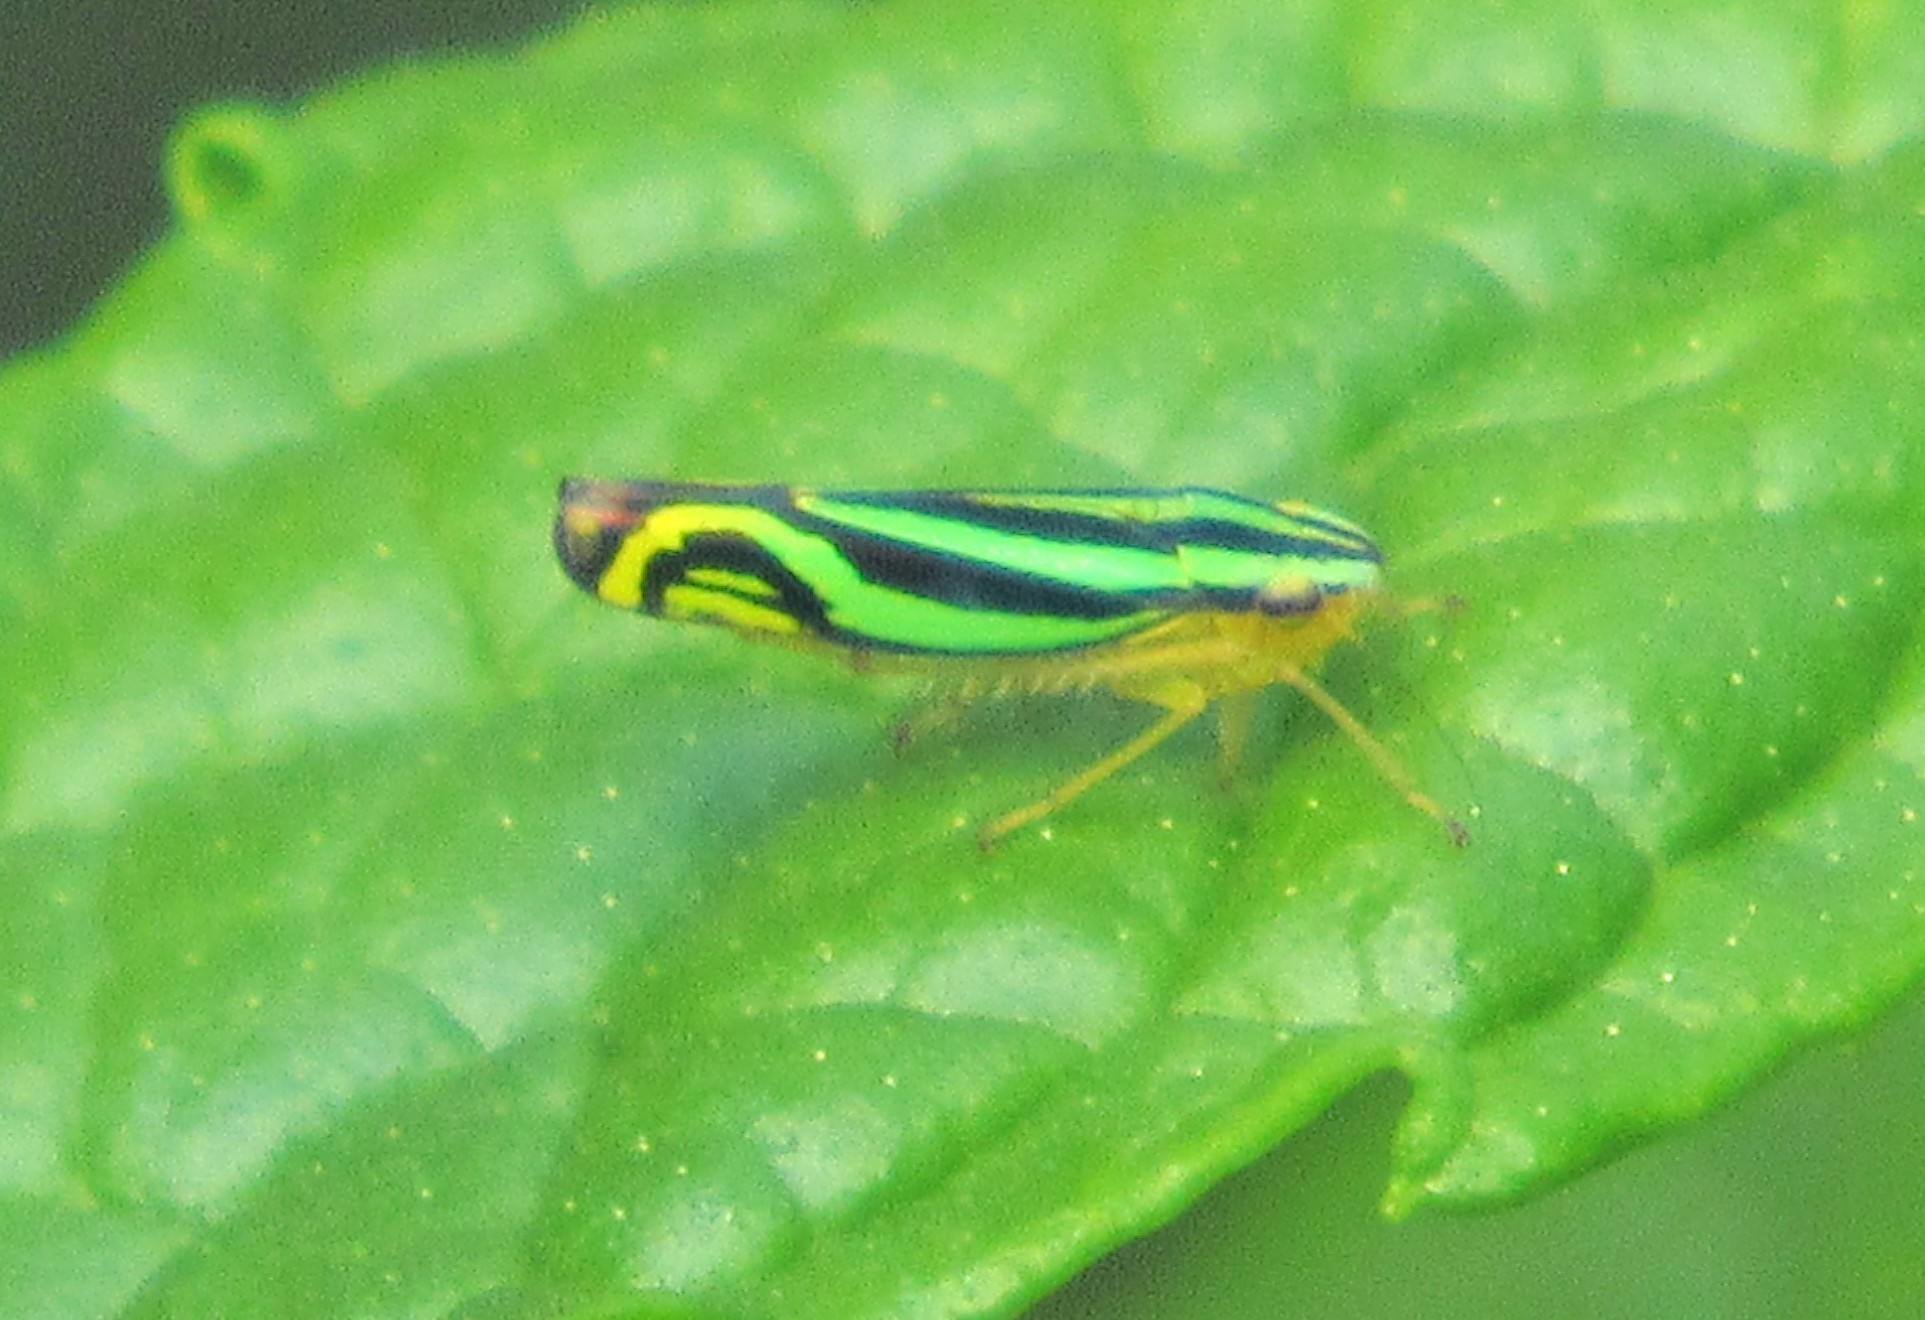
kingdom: Animalia
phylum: Arthropoda
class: Insecta
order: Hemiptera
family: Cicadellidae
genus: Sibovia
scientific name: Sibovia sagata
